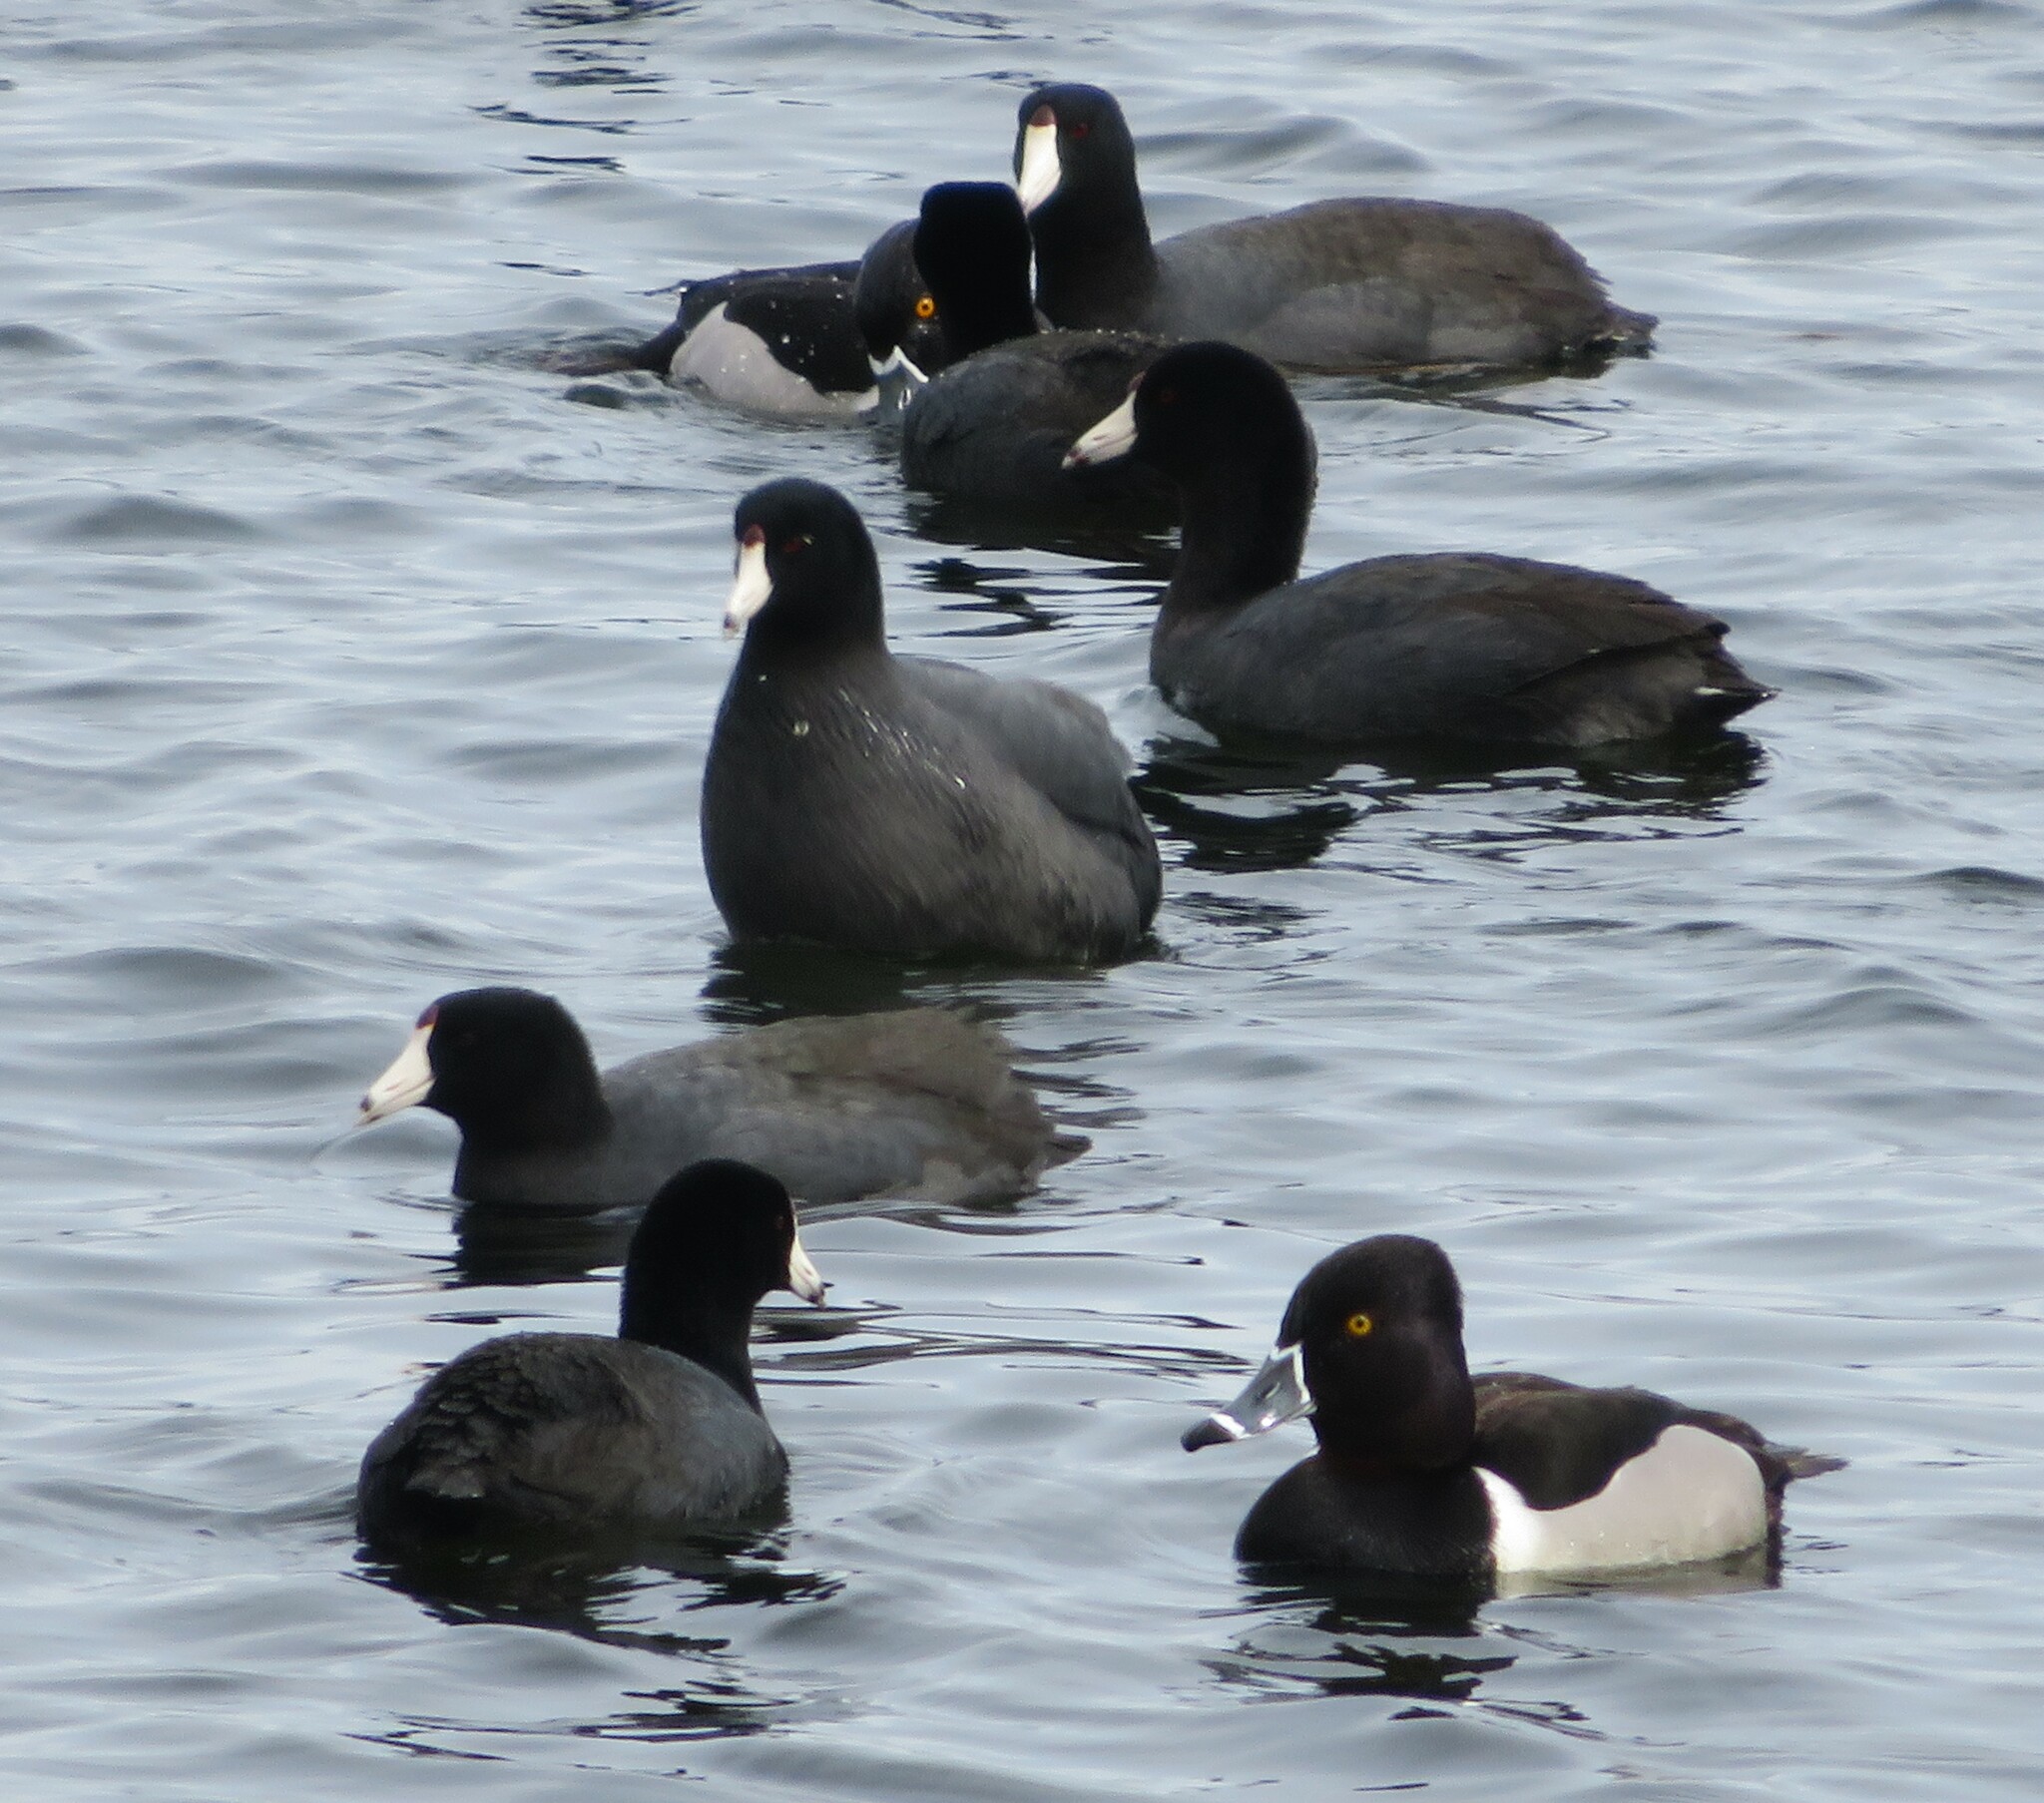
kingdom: Animalia
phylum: Chordata
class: Aves
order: Gruiformes
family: Rallidae
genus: Fulica
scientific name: Fulica americana
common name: American coot
